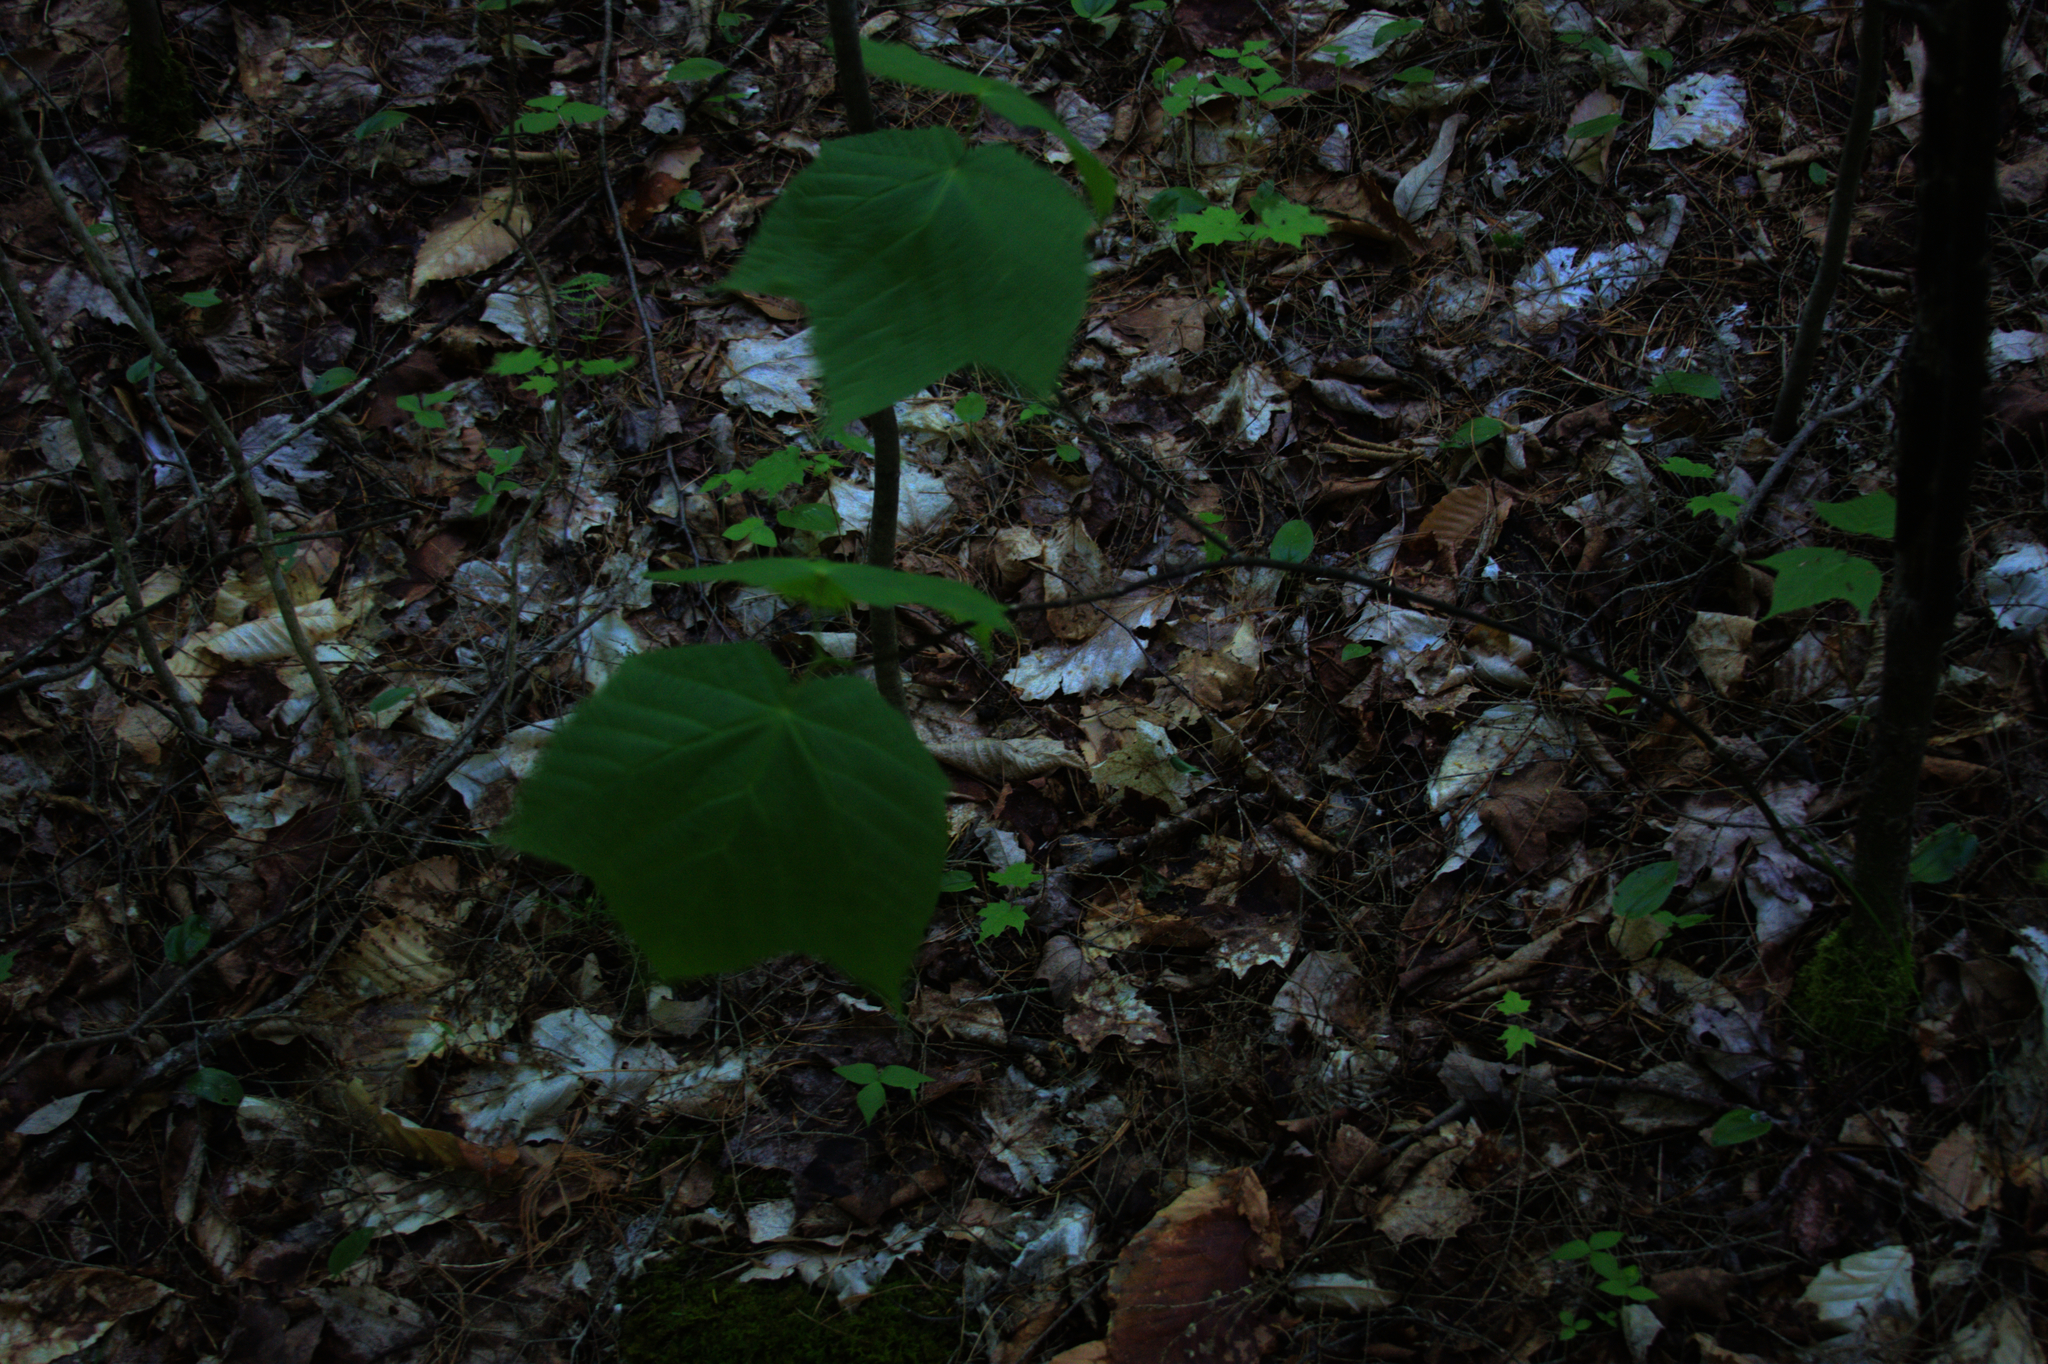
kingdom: Plantae
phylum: Tracheophyta
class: Magnoliopsida
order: Sapindales
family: Sapindaceae
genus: Acer
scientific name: Acer pensylvanicum
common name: Moosewood
